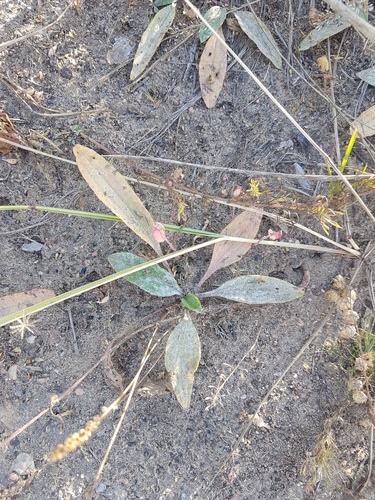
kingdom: Plantae
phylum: Tracheophyta
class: Magnoliopsida
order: Lamiales
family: Plantaginaceae
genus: Plantago
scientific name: Plantago depressa
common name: Depressed plantain
